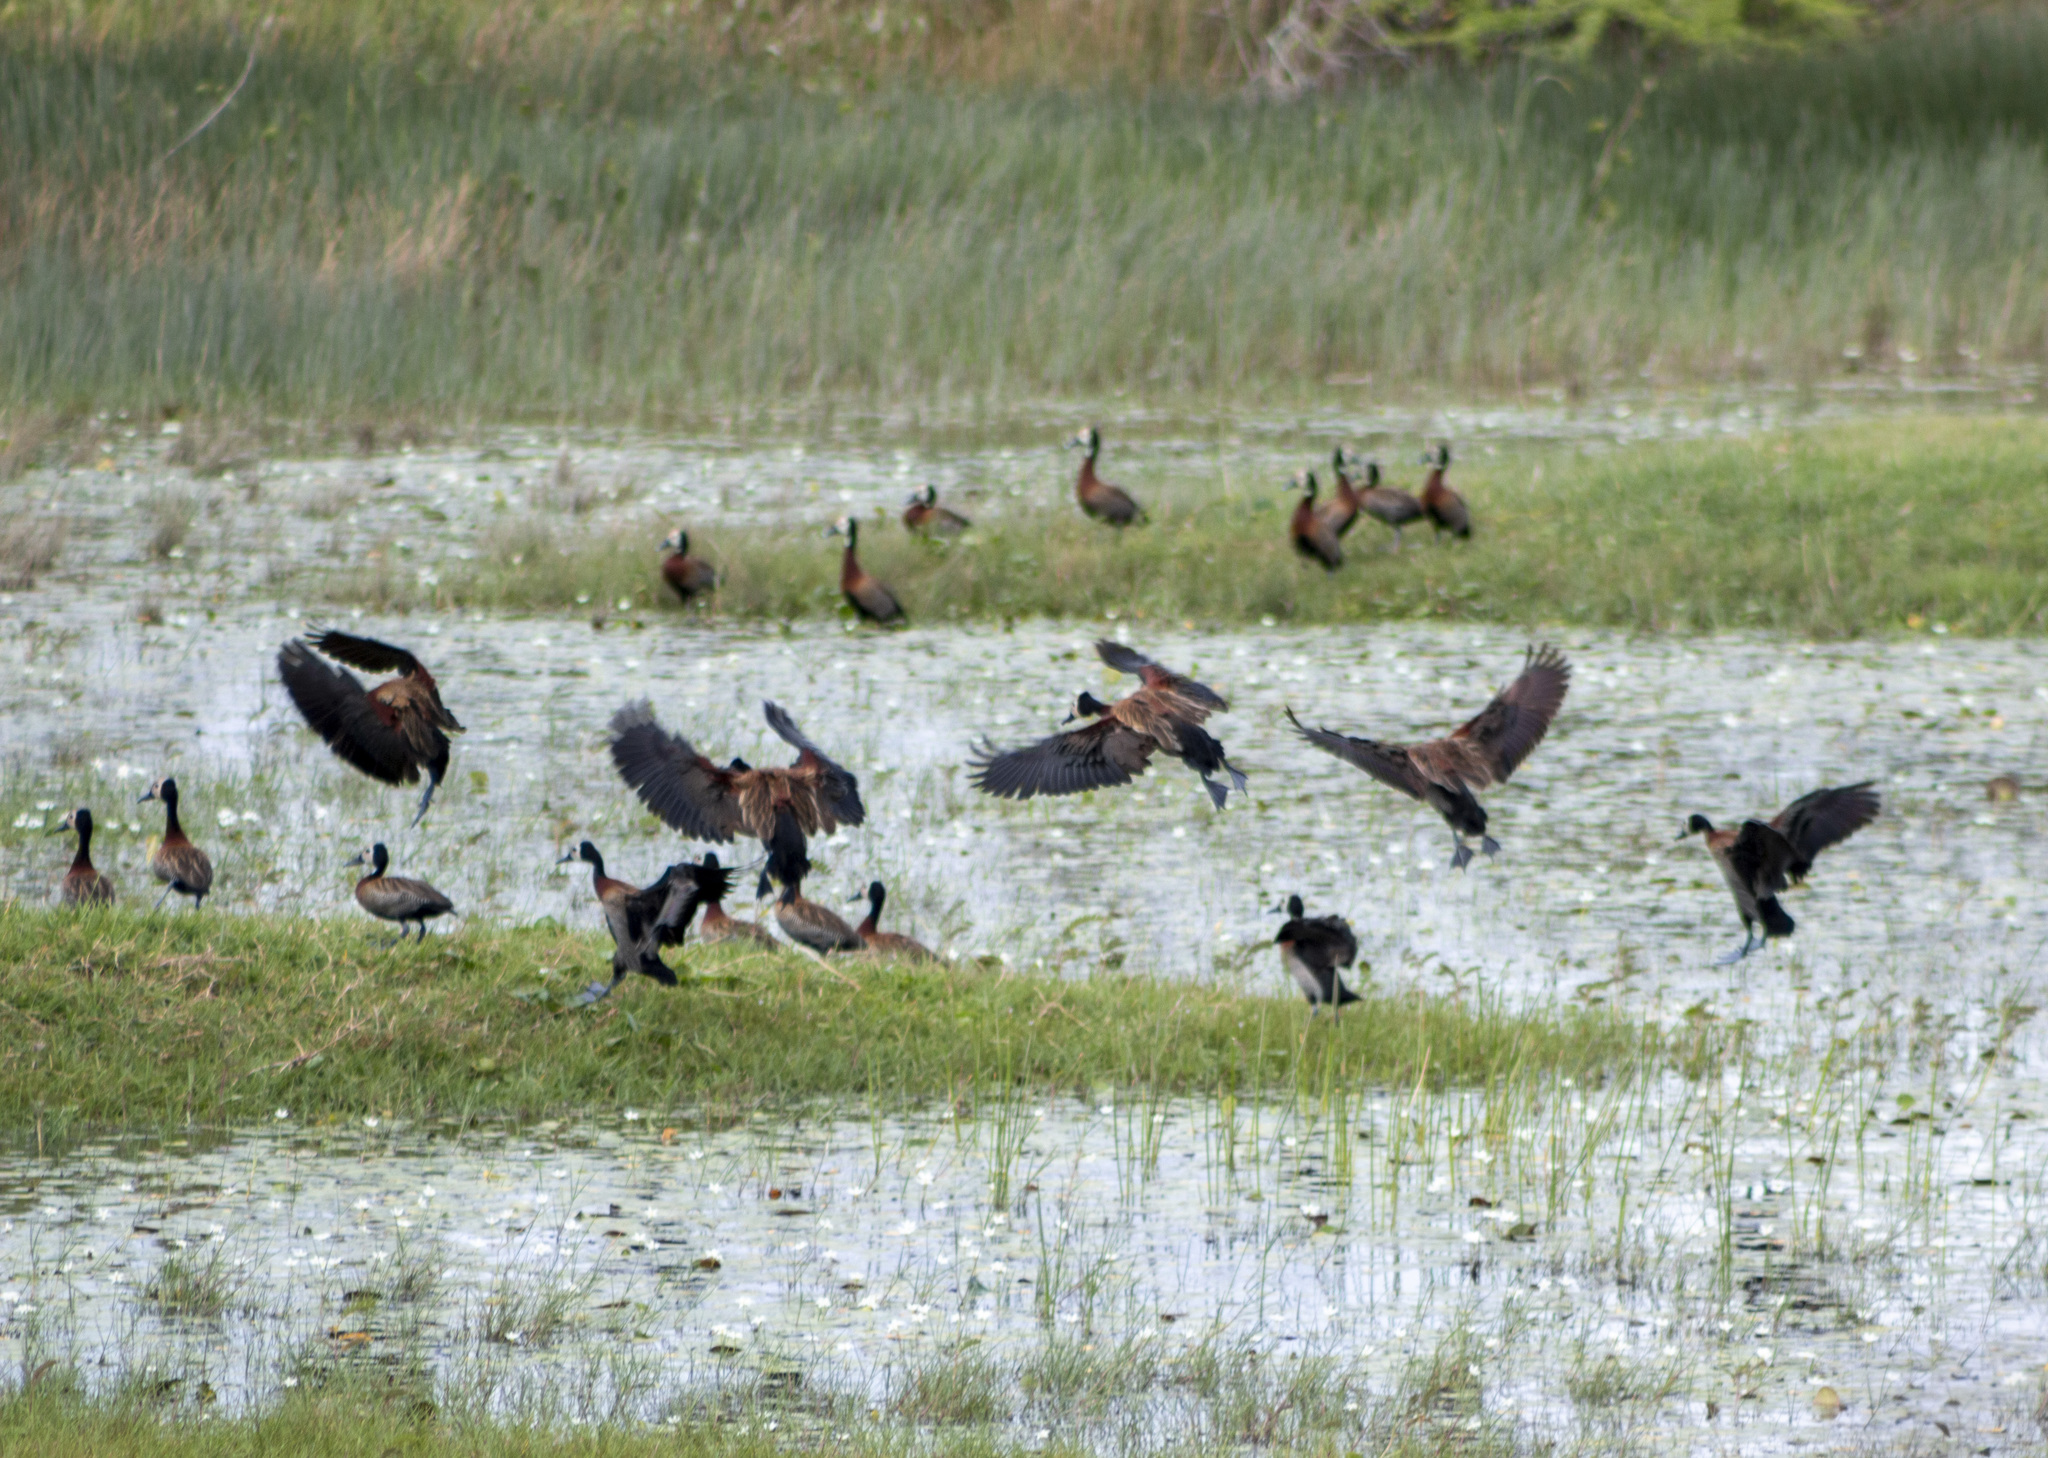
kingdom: Animalia
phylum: Chordata
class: Aves
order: Anseriformes
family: Anatidae
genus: Dendrocygna
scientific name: Dendrocygna viduata
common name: White-faced whistling duck
